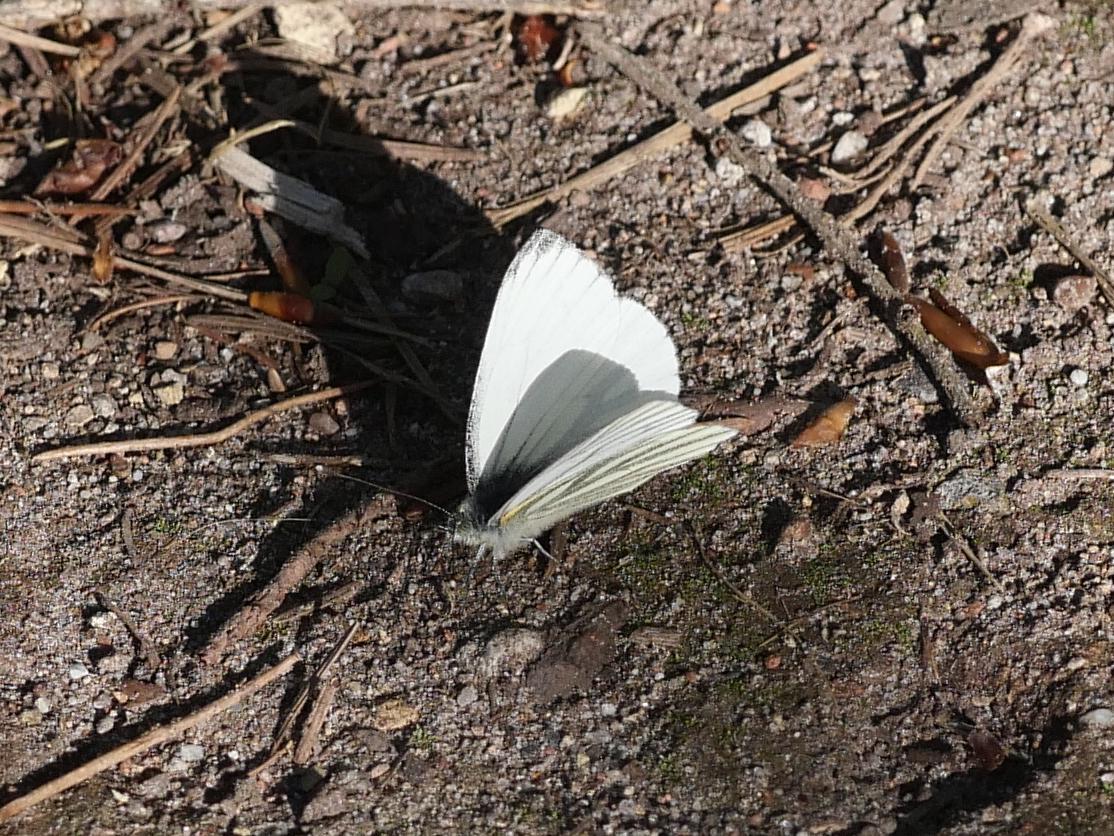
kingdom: Animalia
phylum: Arthropoda
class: Insecta
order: Lepidoptera
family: Pieridae
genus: Pieris
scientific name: Pieris napi
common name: Green-veined white
